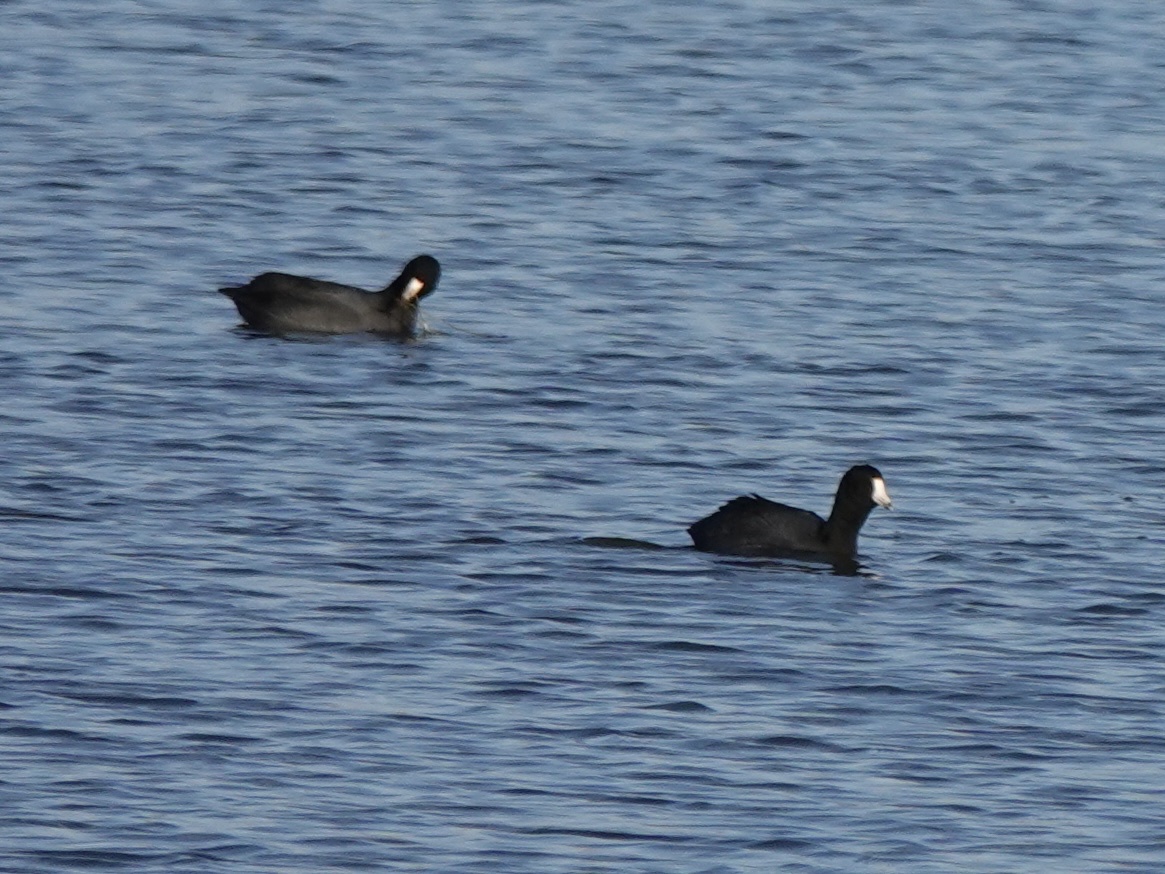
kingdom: Animalia
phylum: Chordata
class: Aves
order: Gruiformes
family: Rallidae
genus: Fulica
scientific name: Fulica americana
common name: American coot
